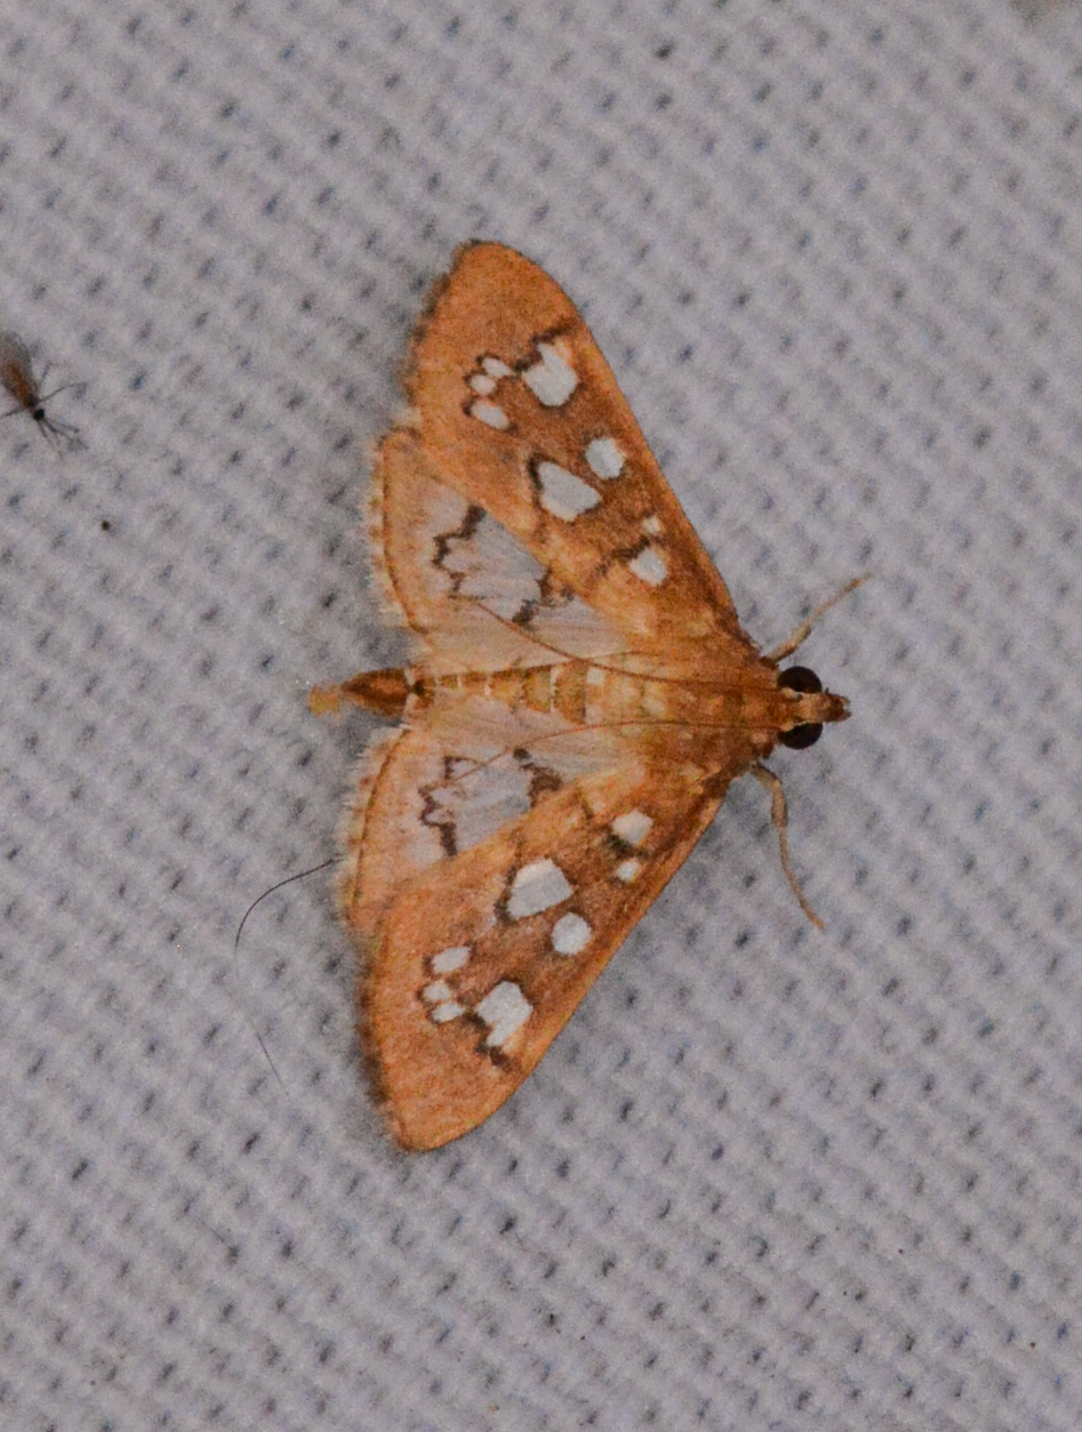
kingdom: Animalia
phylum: Arthropoda
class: Insecta
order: Lepidoptera
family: Crambidae
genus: Samea
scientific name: Samea baccatalis
